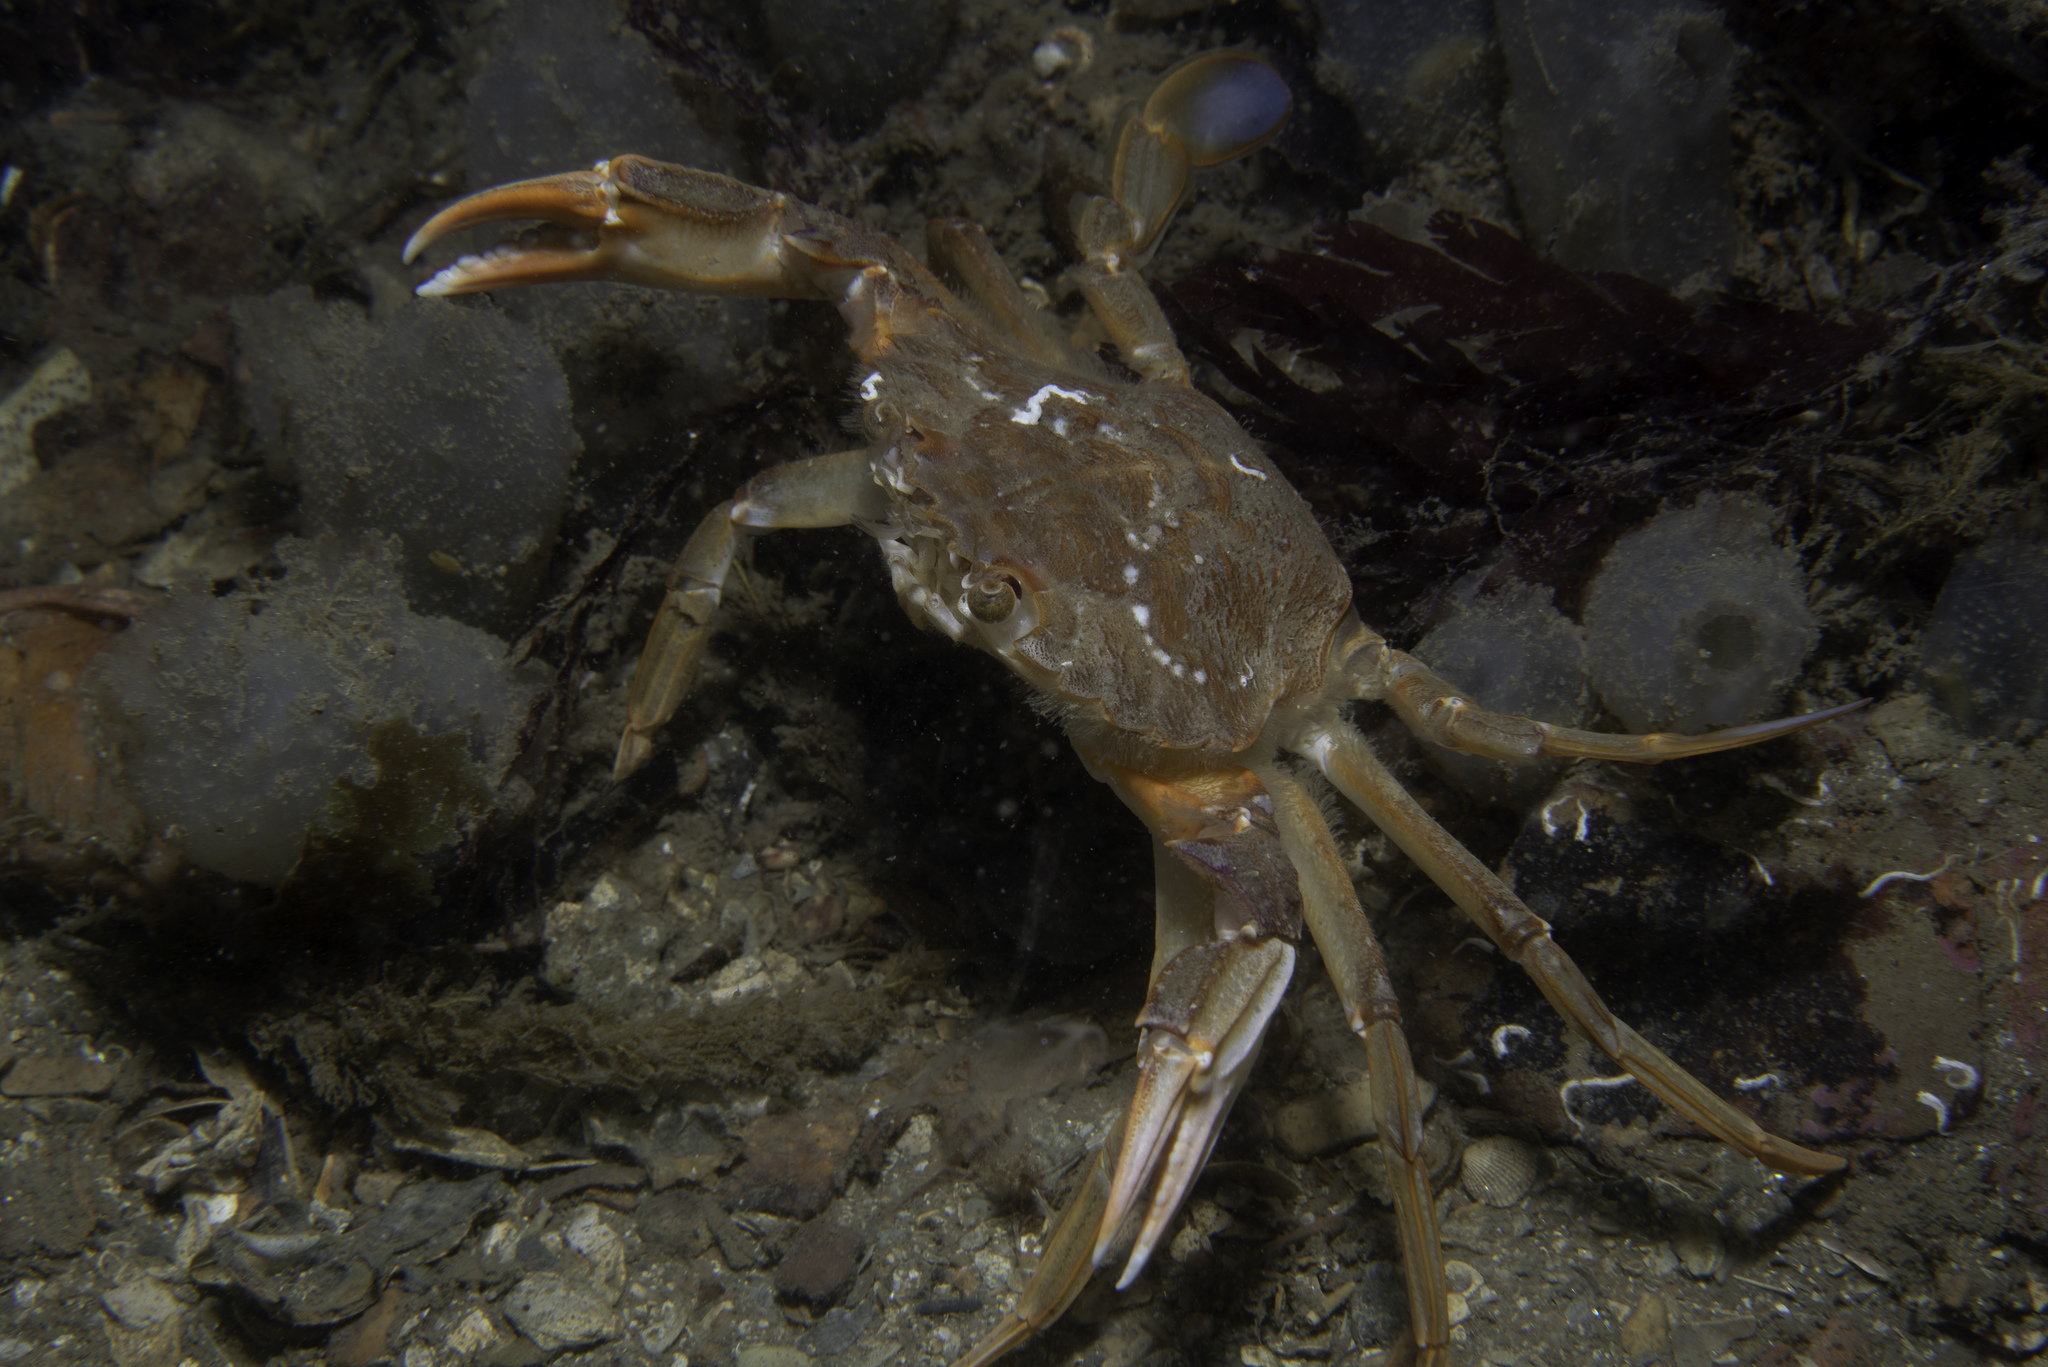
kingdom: Animalia
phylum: Arthropoda
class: Malacostraca
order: Decapoda
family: Polybiidae
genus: Liocarcinus
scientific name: Liocarcinus depurator
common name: Cleanser crab
